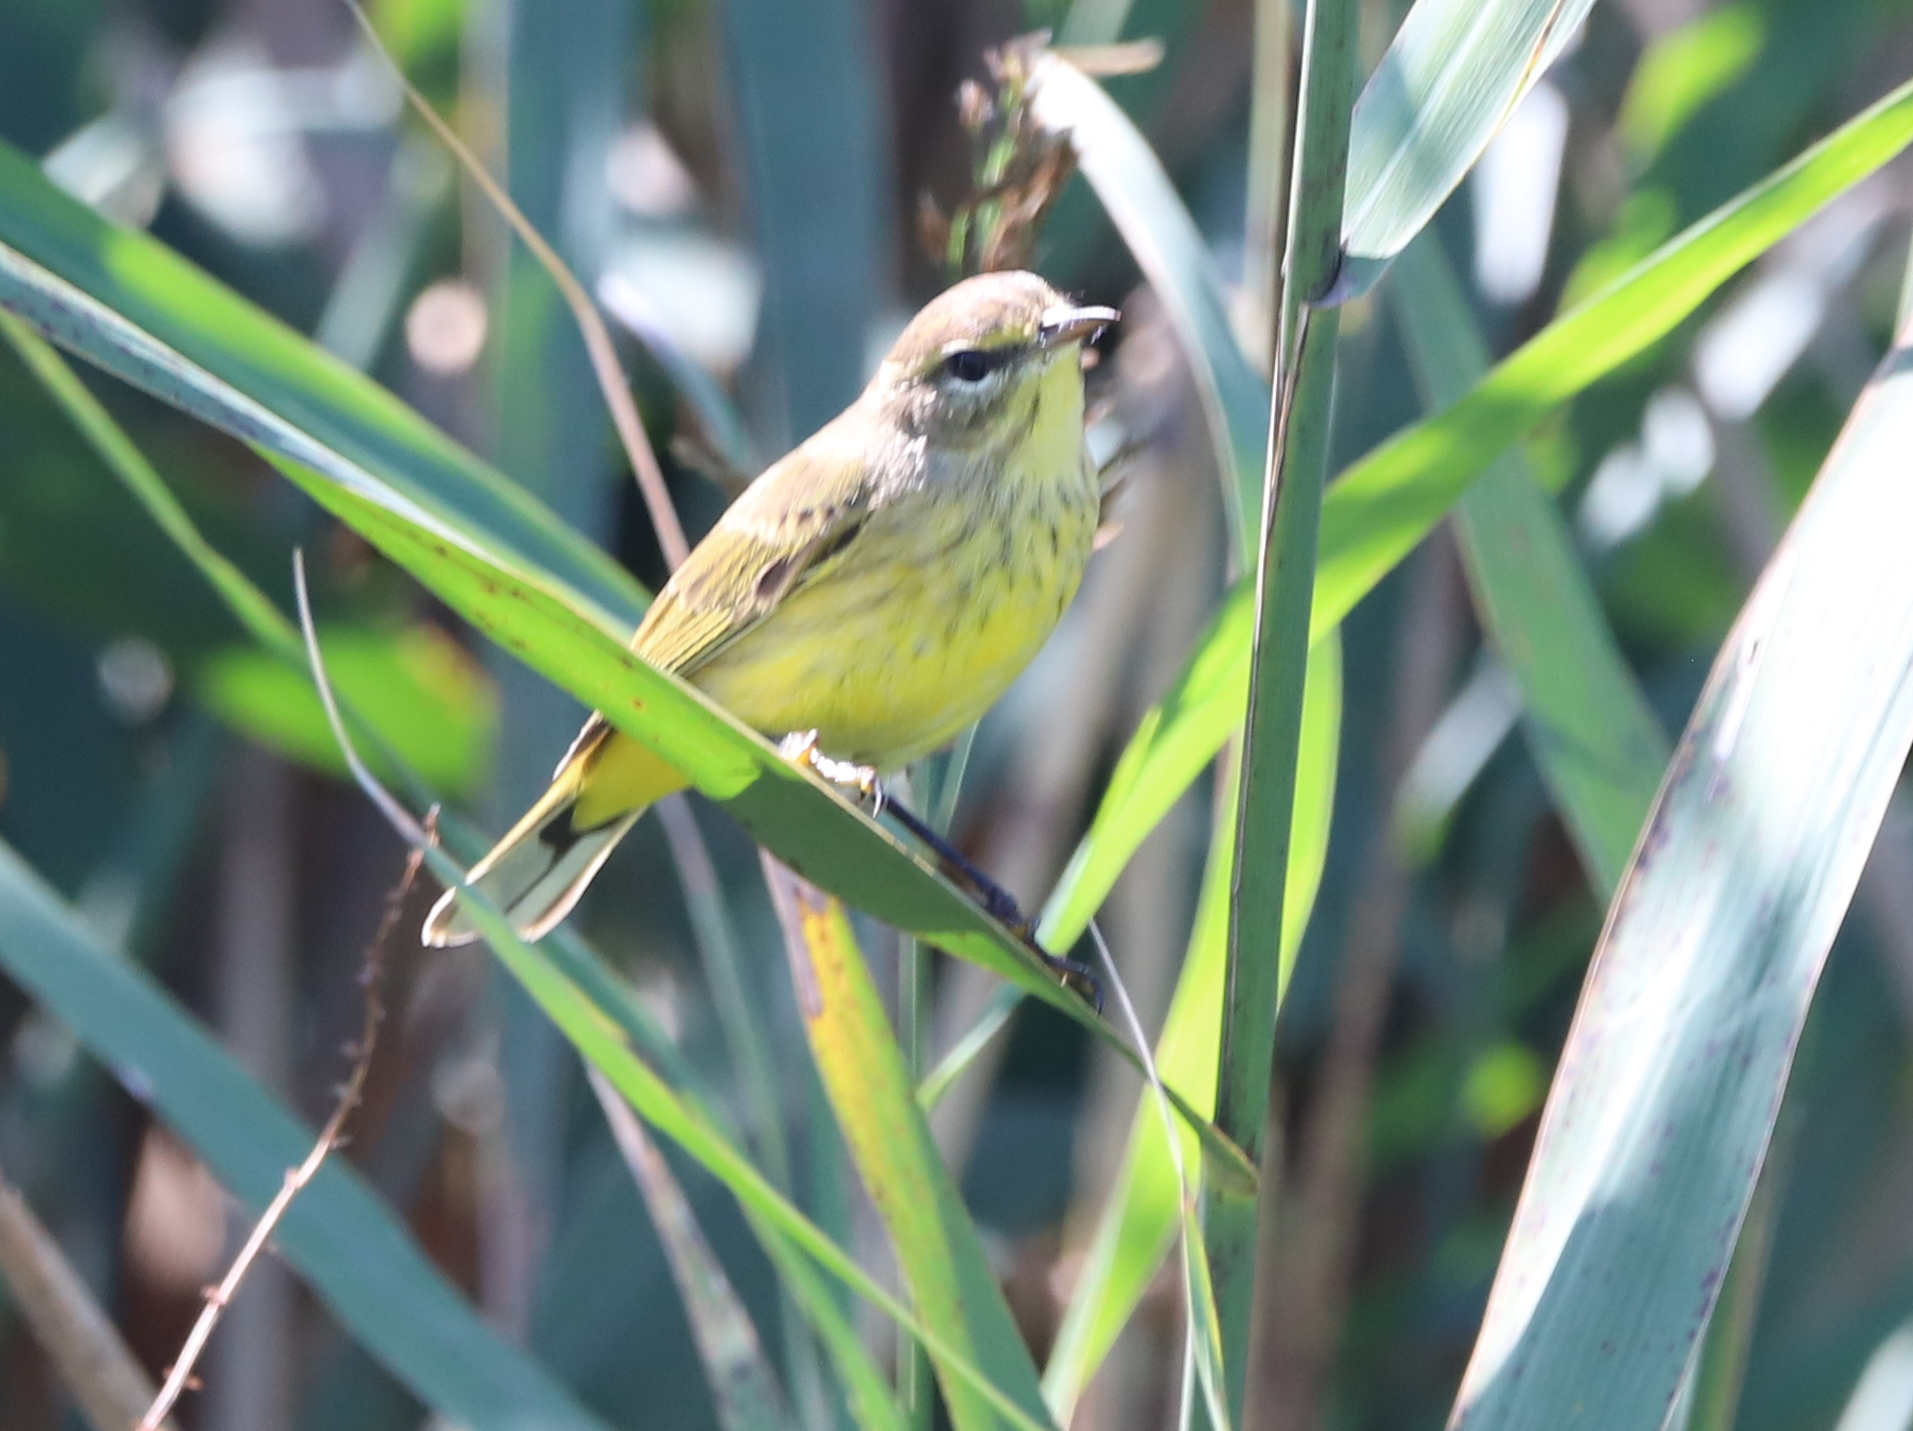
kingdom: Animalia
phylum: Chordata
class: Aves
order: Passeriformes
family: Parulidae
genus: Setophaga
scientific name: Setophaga palmarum
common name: Palm warbler
